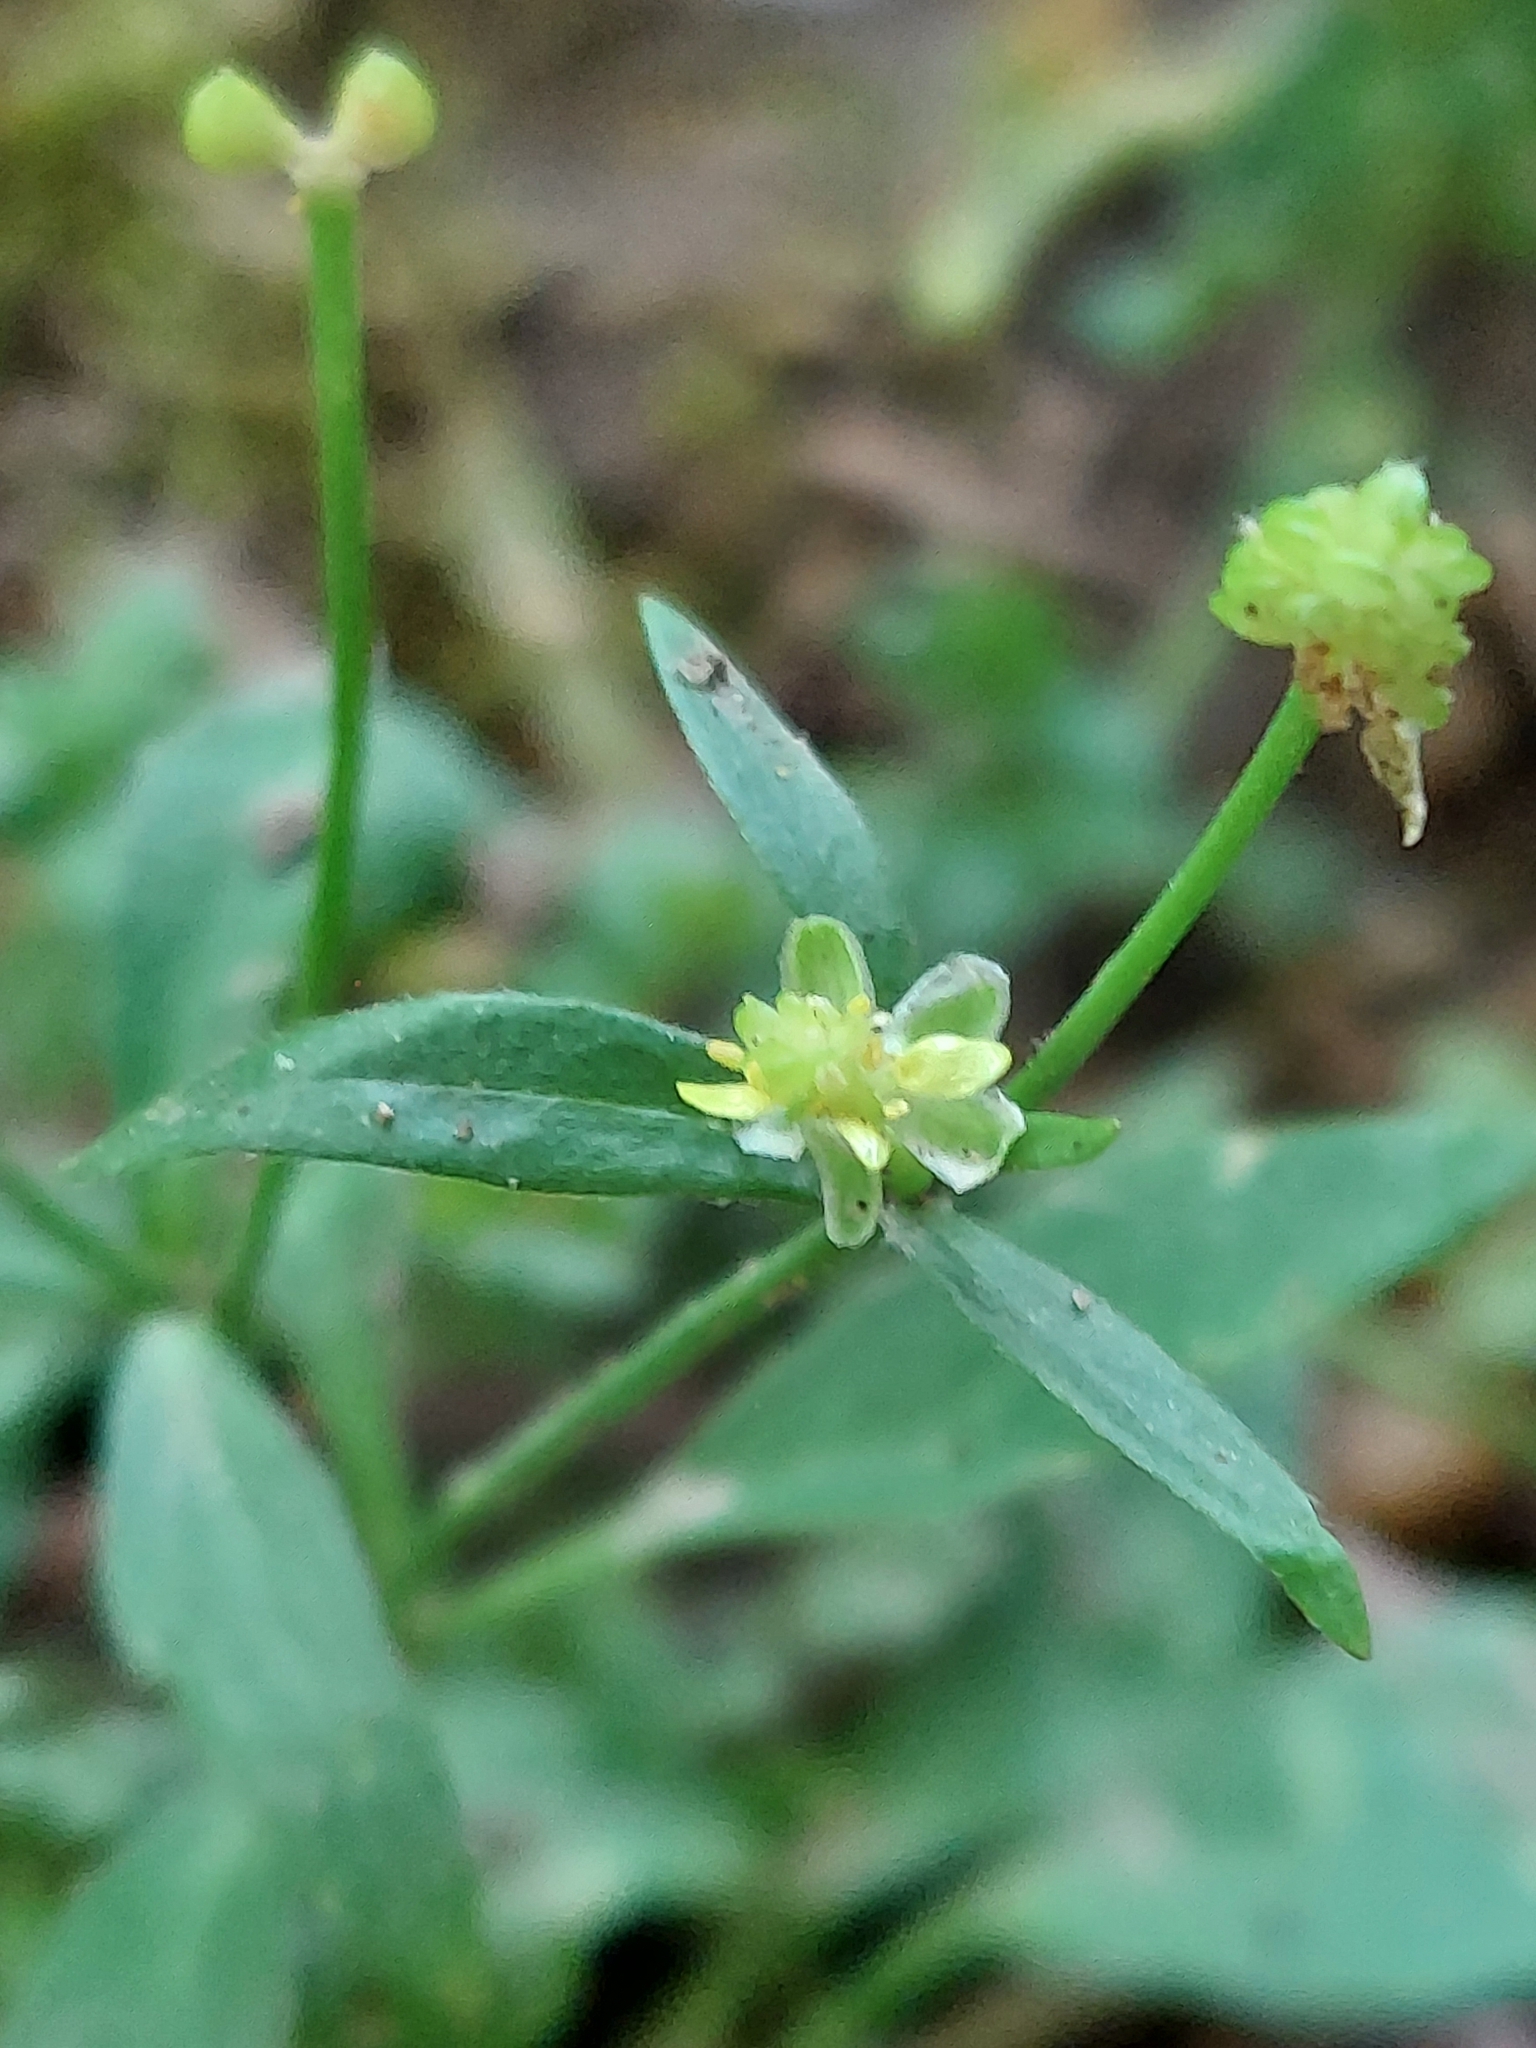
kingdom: Plantae
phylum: Tracheophyta
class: Magnoliopsida
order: Ranunculales
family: Ranunculaceae
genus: Ranunculus
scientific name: Ranunculus abortivus
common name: Early wood buttercup
